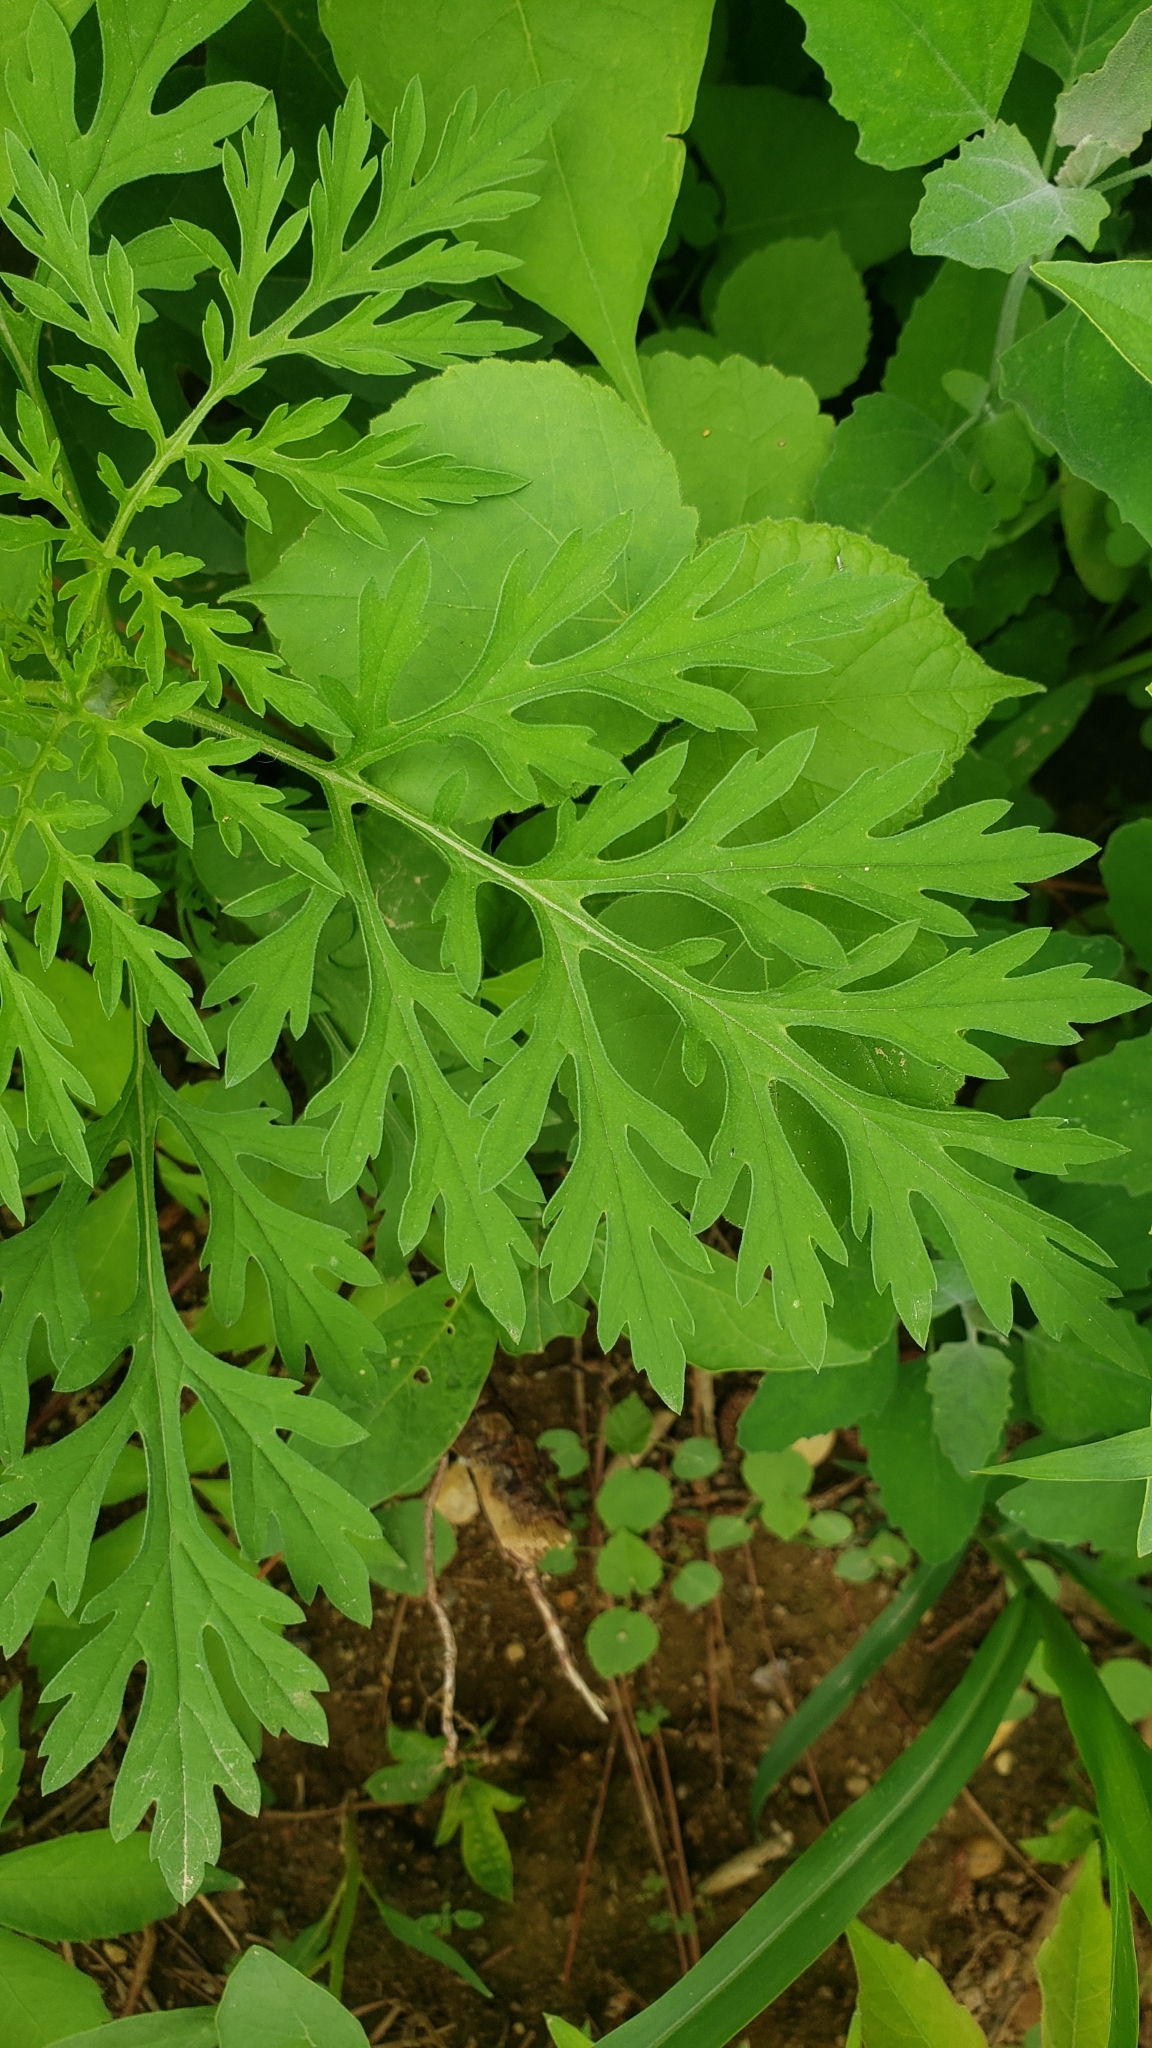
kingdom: Plantae
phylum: Tracheophyta
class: Magnoliopsida
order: Asterales
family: Asteraceae
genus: Ambrosia
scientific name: Ambrosia artemisiifolia
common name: Annual ragweed
